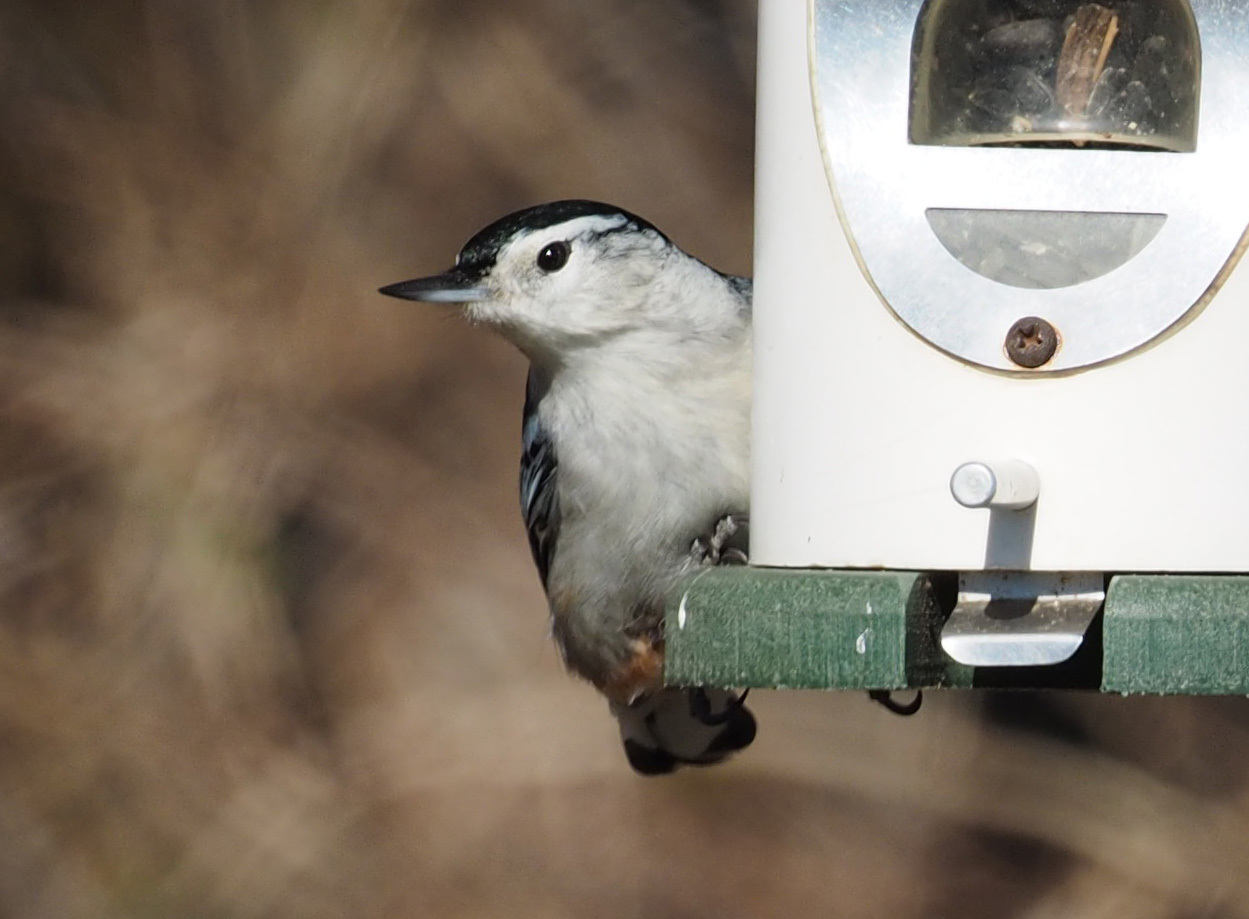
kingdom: Animalia
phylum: Chordata
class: Aves
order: Passeriformes
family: Sittidae
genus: Sitta
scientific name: Sitta carolinensis
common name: White-breasted nuthatch
